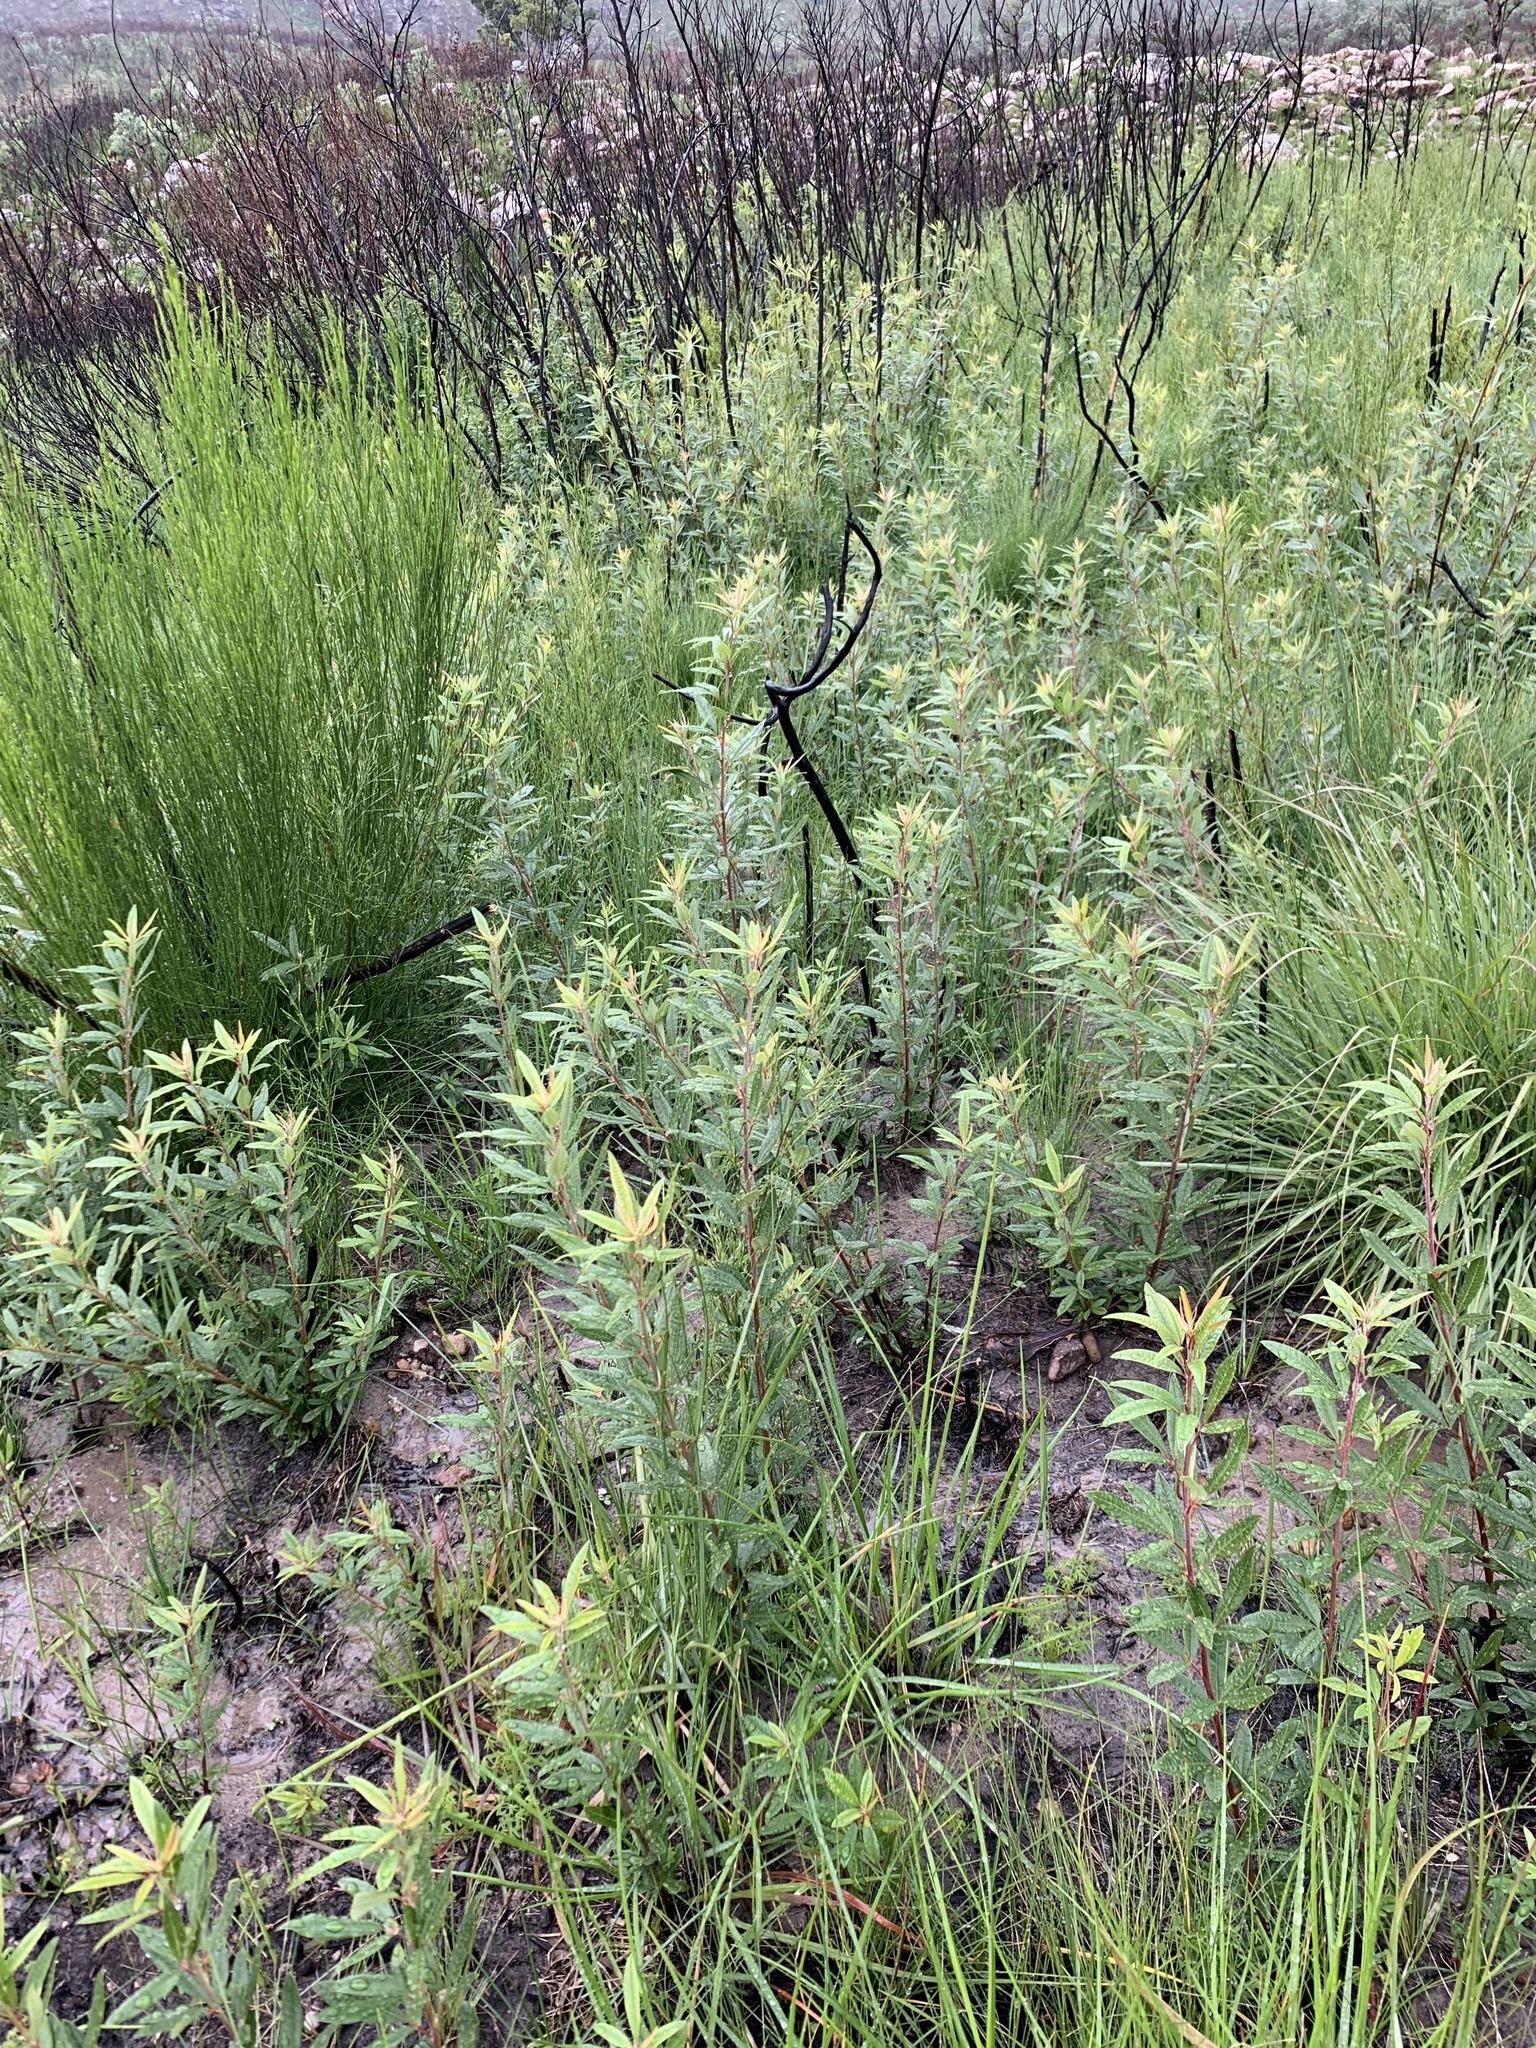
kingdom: Plantae
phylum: Tracheophyta
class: Magnoliopsida
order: Sapindales
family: Anacardiaceae
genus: Searsia
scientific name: Searsia angustifolia
